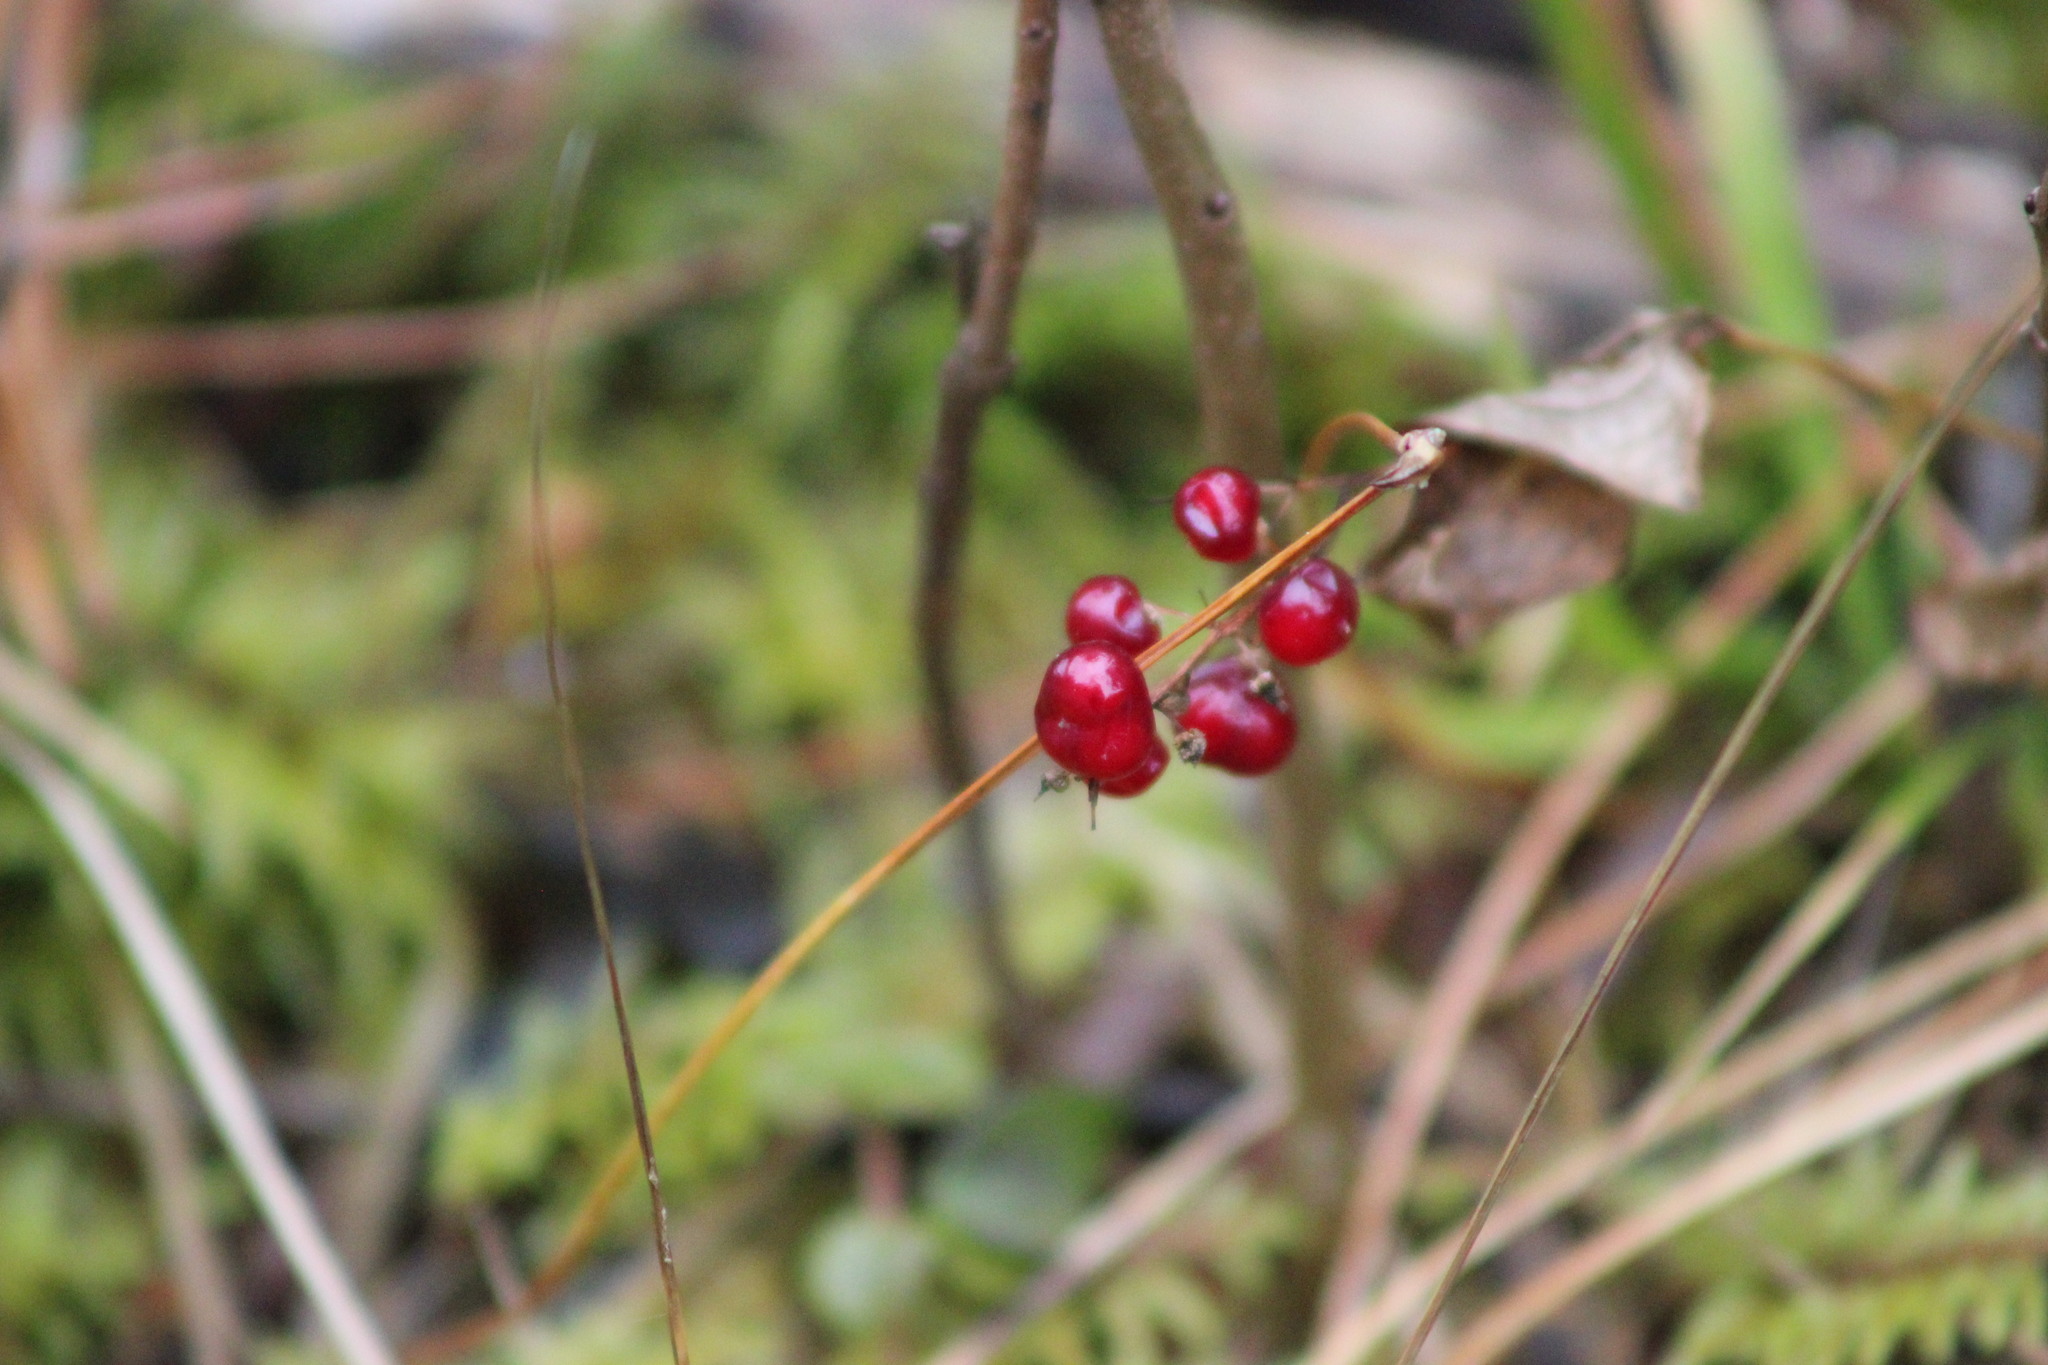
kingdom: Plantae
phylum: Tracheophyta
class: Liliopsida
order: Asparagales
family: Asparagaceae
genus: Maianthemum
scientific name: Maianthemum bifolium
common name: May lily
